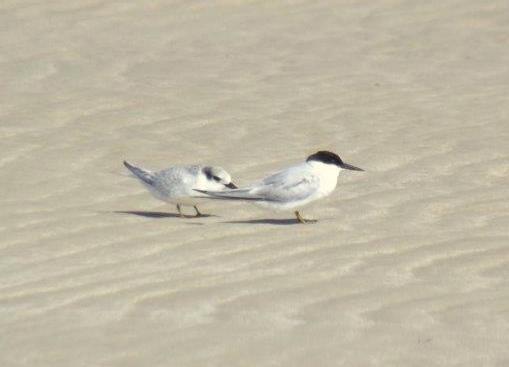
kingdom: Animalia
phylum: Chordata
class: Aves
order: Charadriiformes
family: Laridae
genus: Sternula
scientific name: Sternula balaenarum
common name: Damara tern
